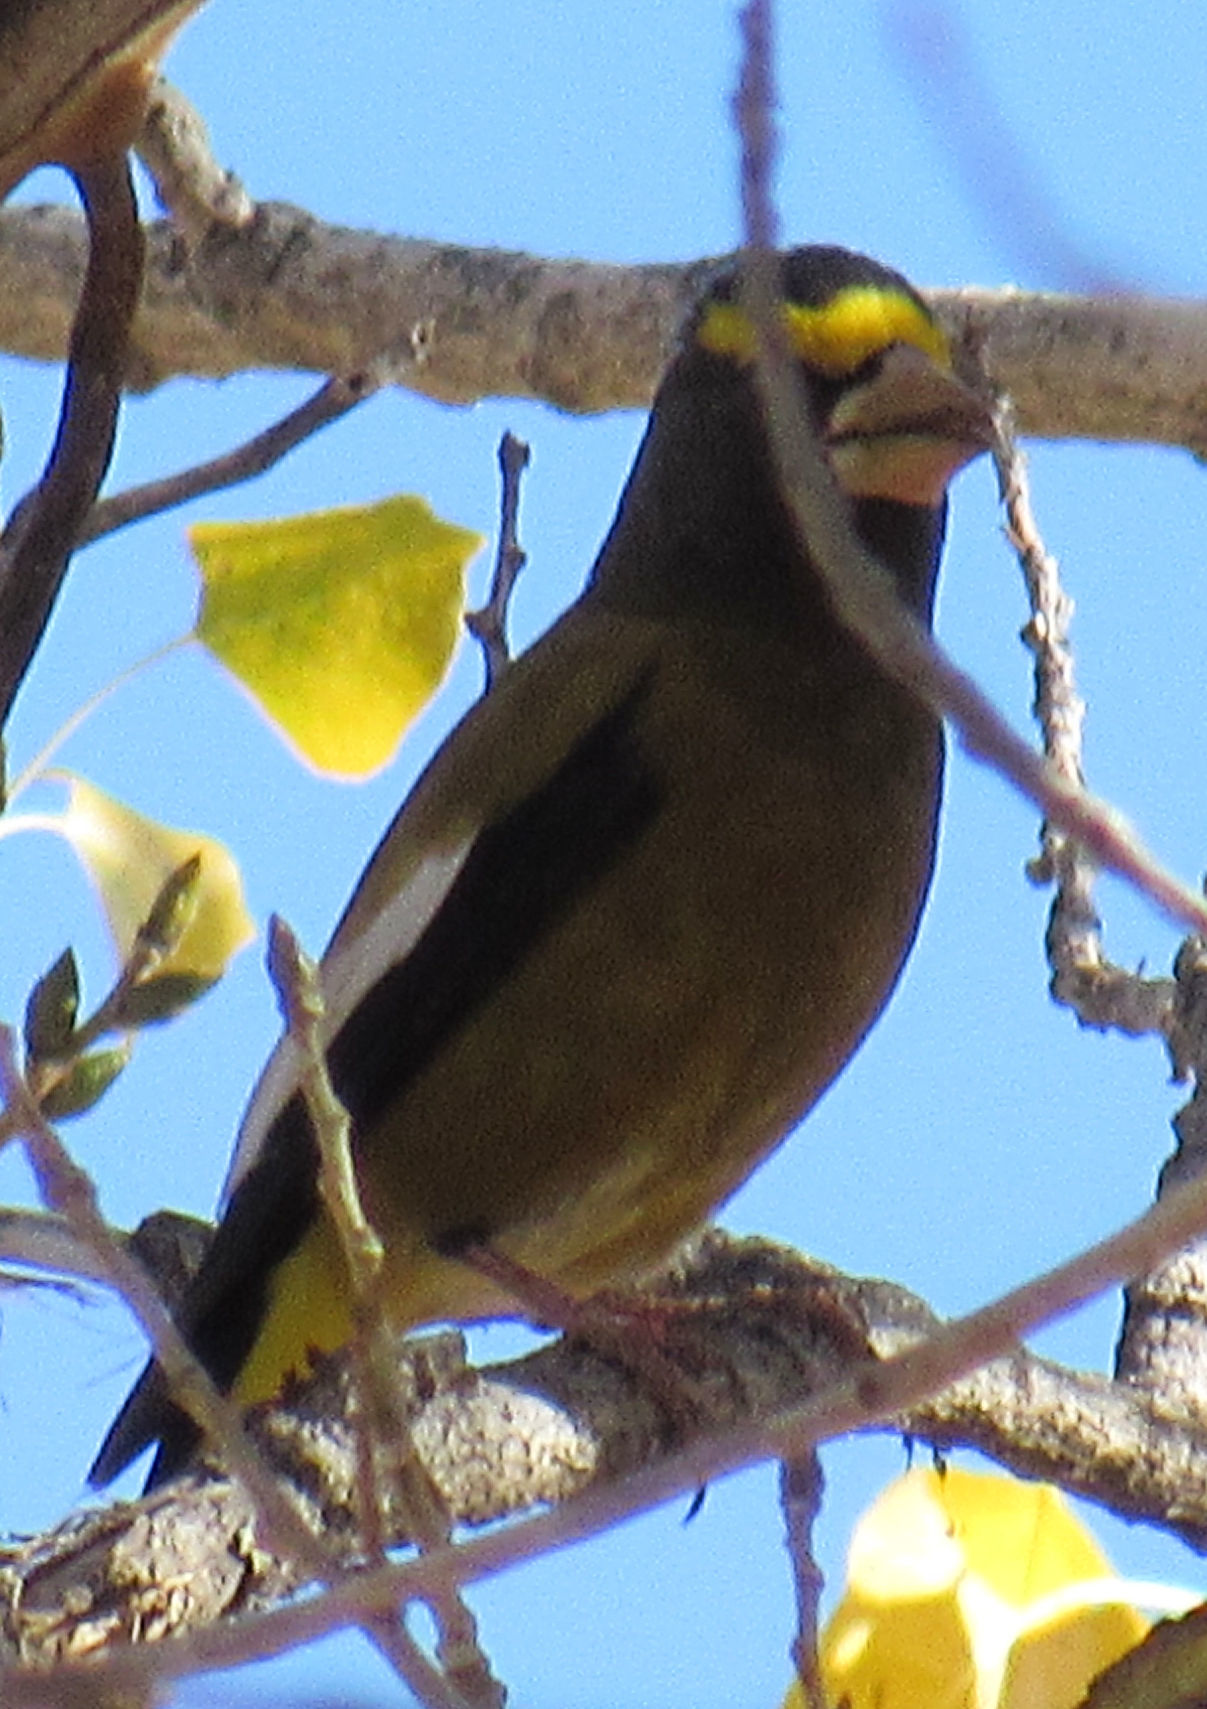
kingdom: Animalia
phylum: Chordata
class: Aves
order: Passeriformes
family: Fringillidae
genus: Hesperiphona
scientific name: Hesperiphona vespertina
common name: Evening grosbeak
